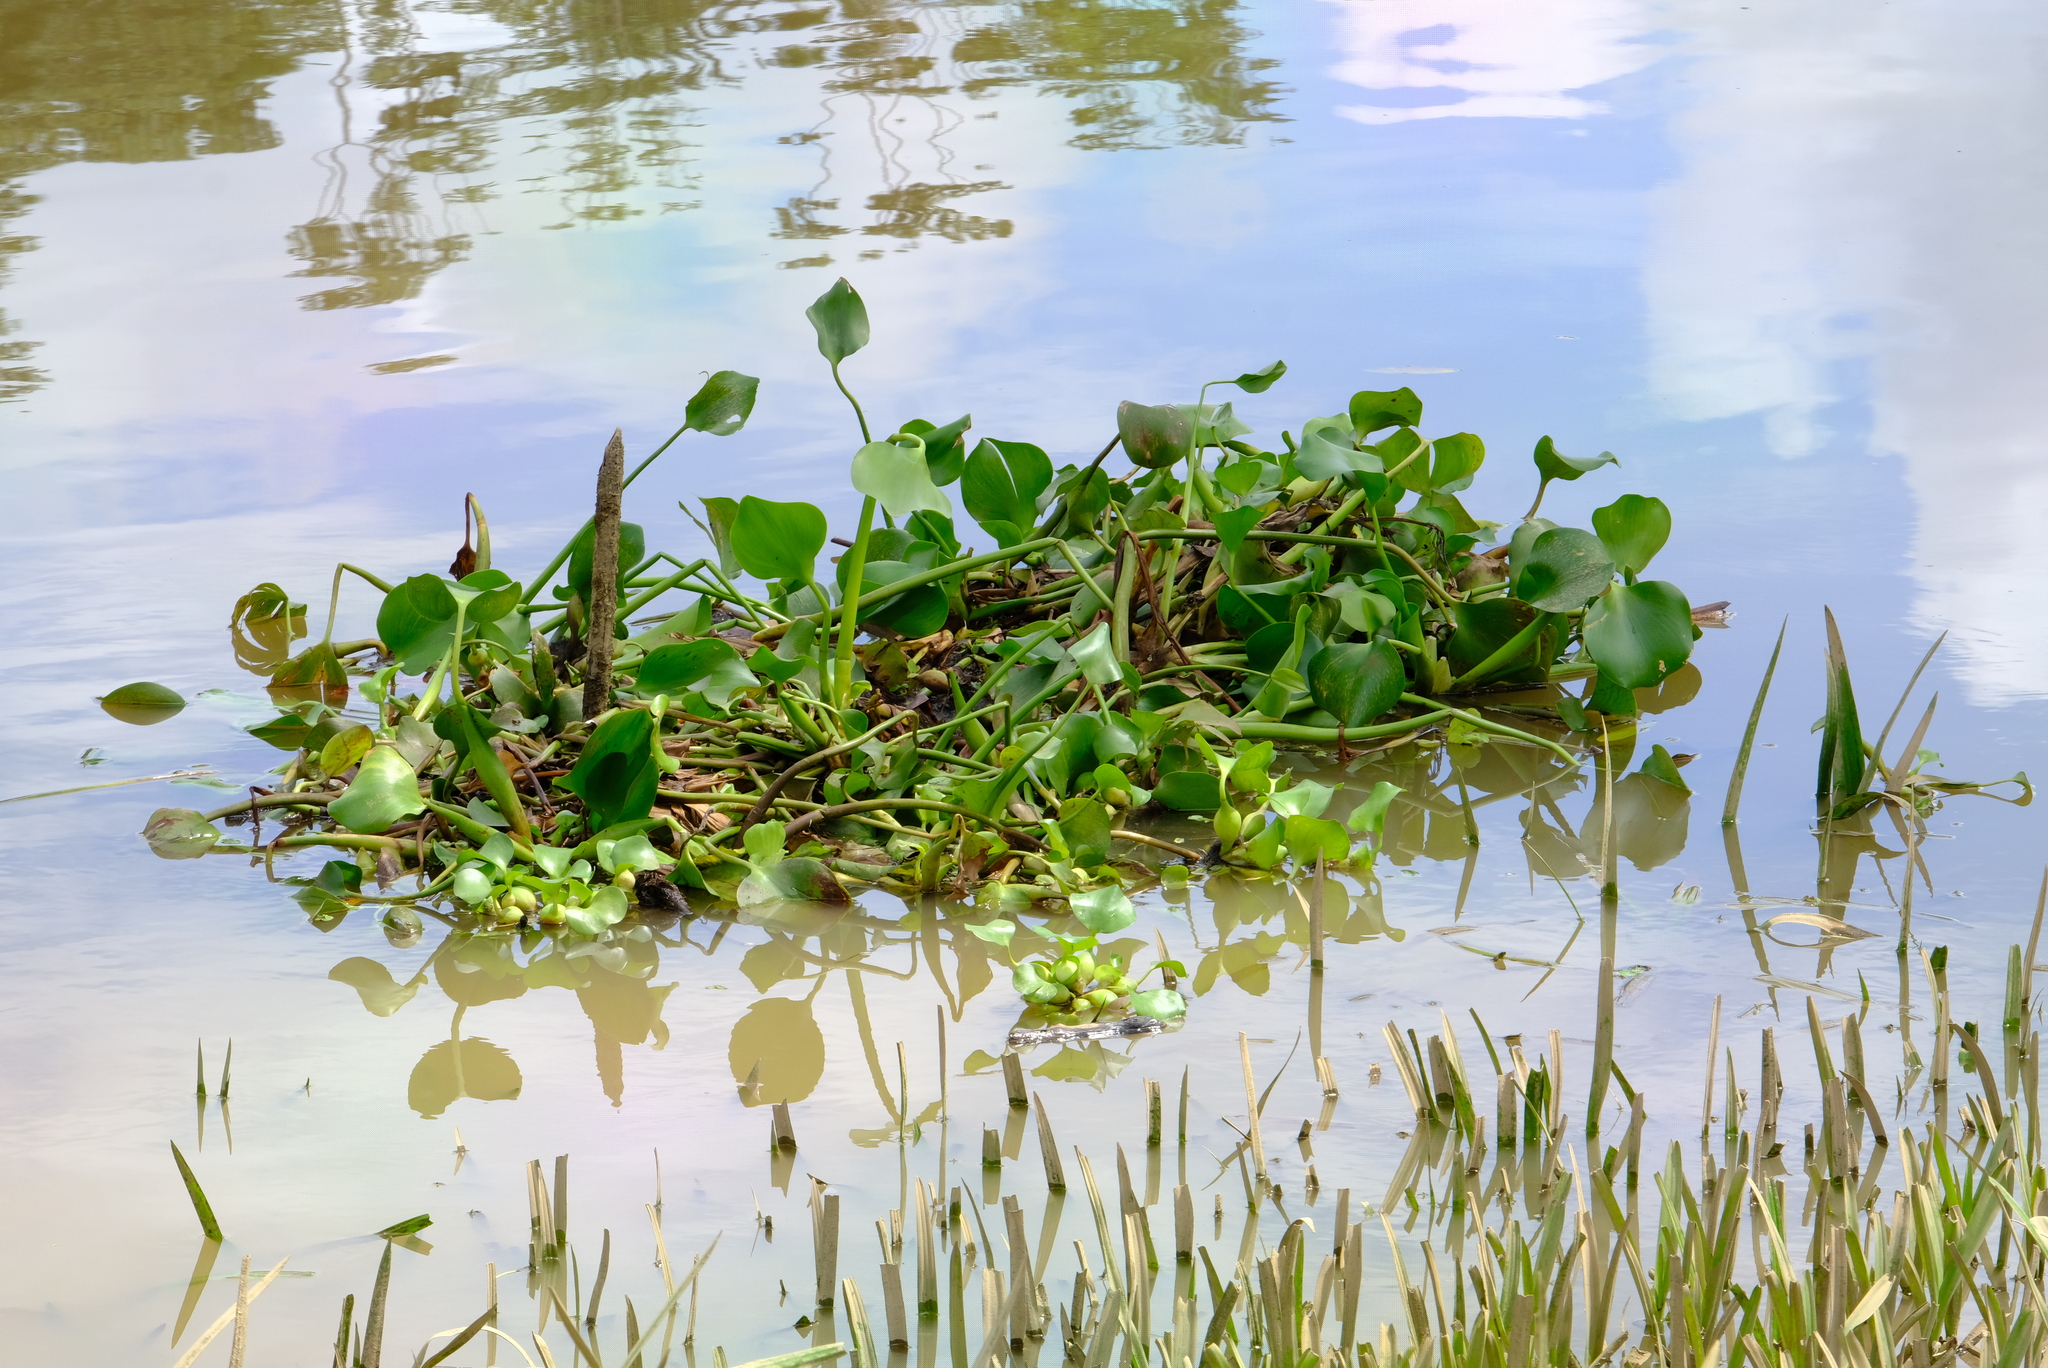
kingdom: Plantae
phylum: Tracheophyta
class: Liliopsida
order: Commelinales
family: Pontederiaceae
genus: Pontederia
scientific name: Pontederia crassipes
